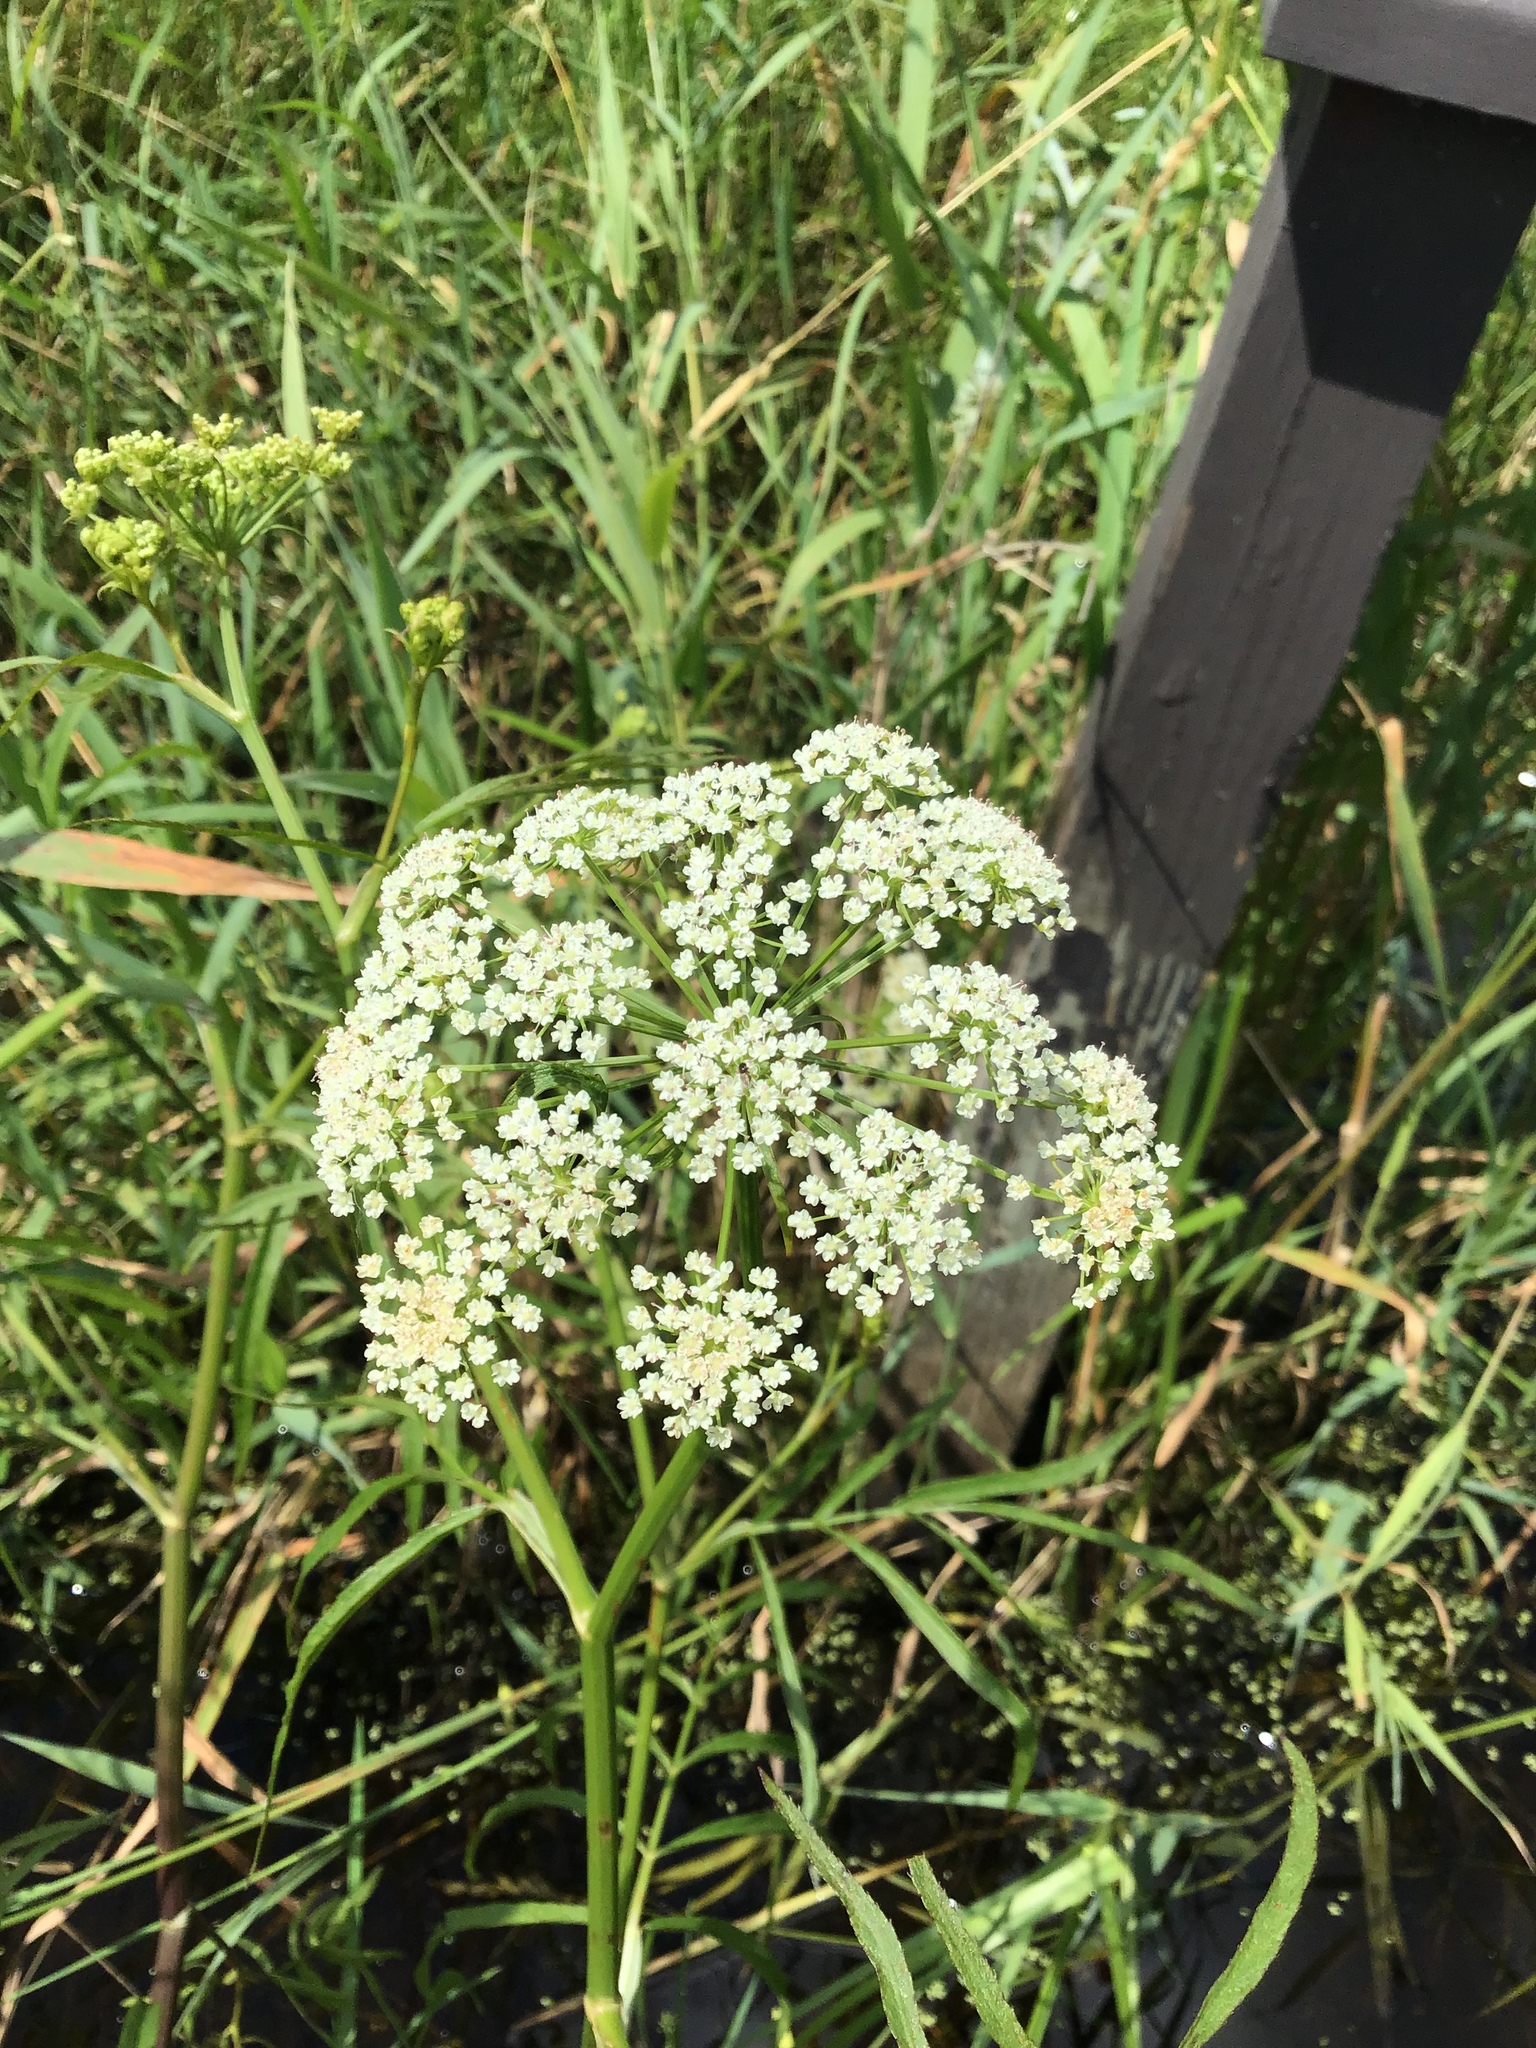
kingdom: Plantae
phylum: Tracheophyta
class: Magnoliopsida
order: Apiales
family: Apiaceae
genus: Sium
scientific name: Sium suave
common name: Hemlock water-parsnip
